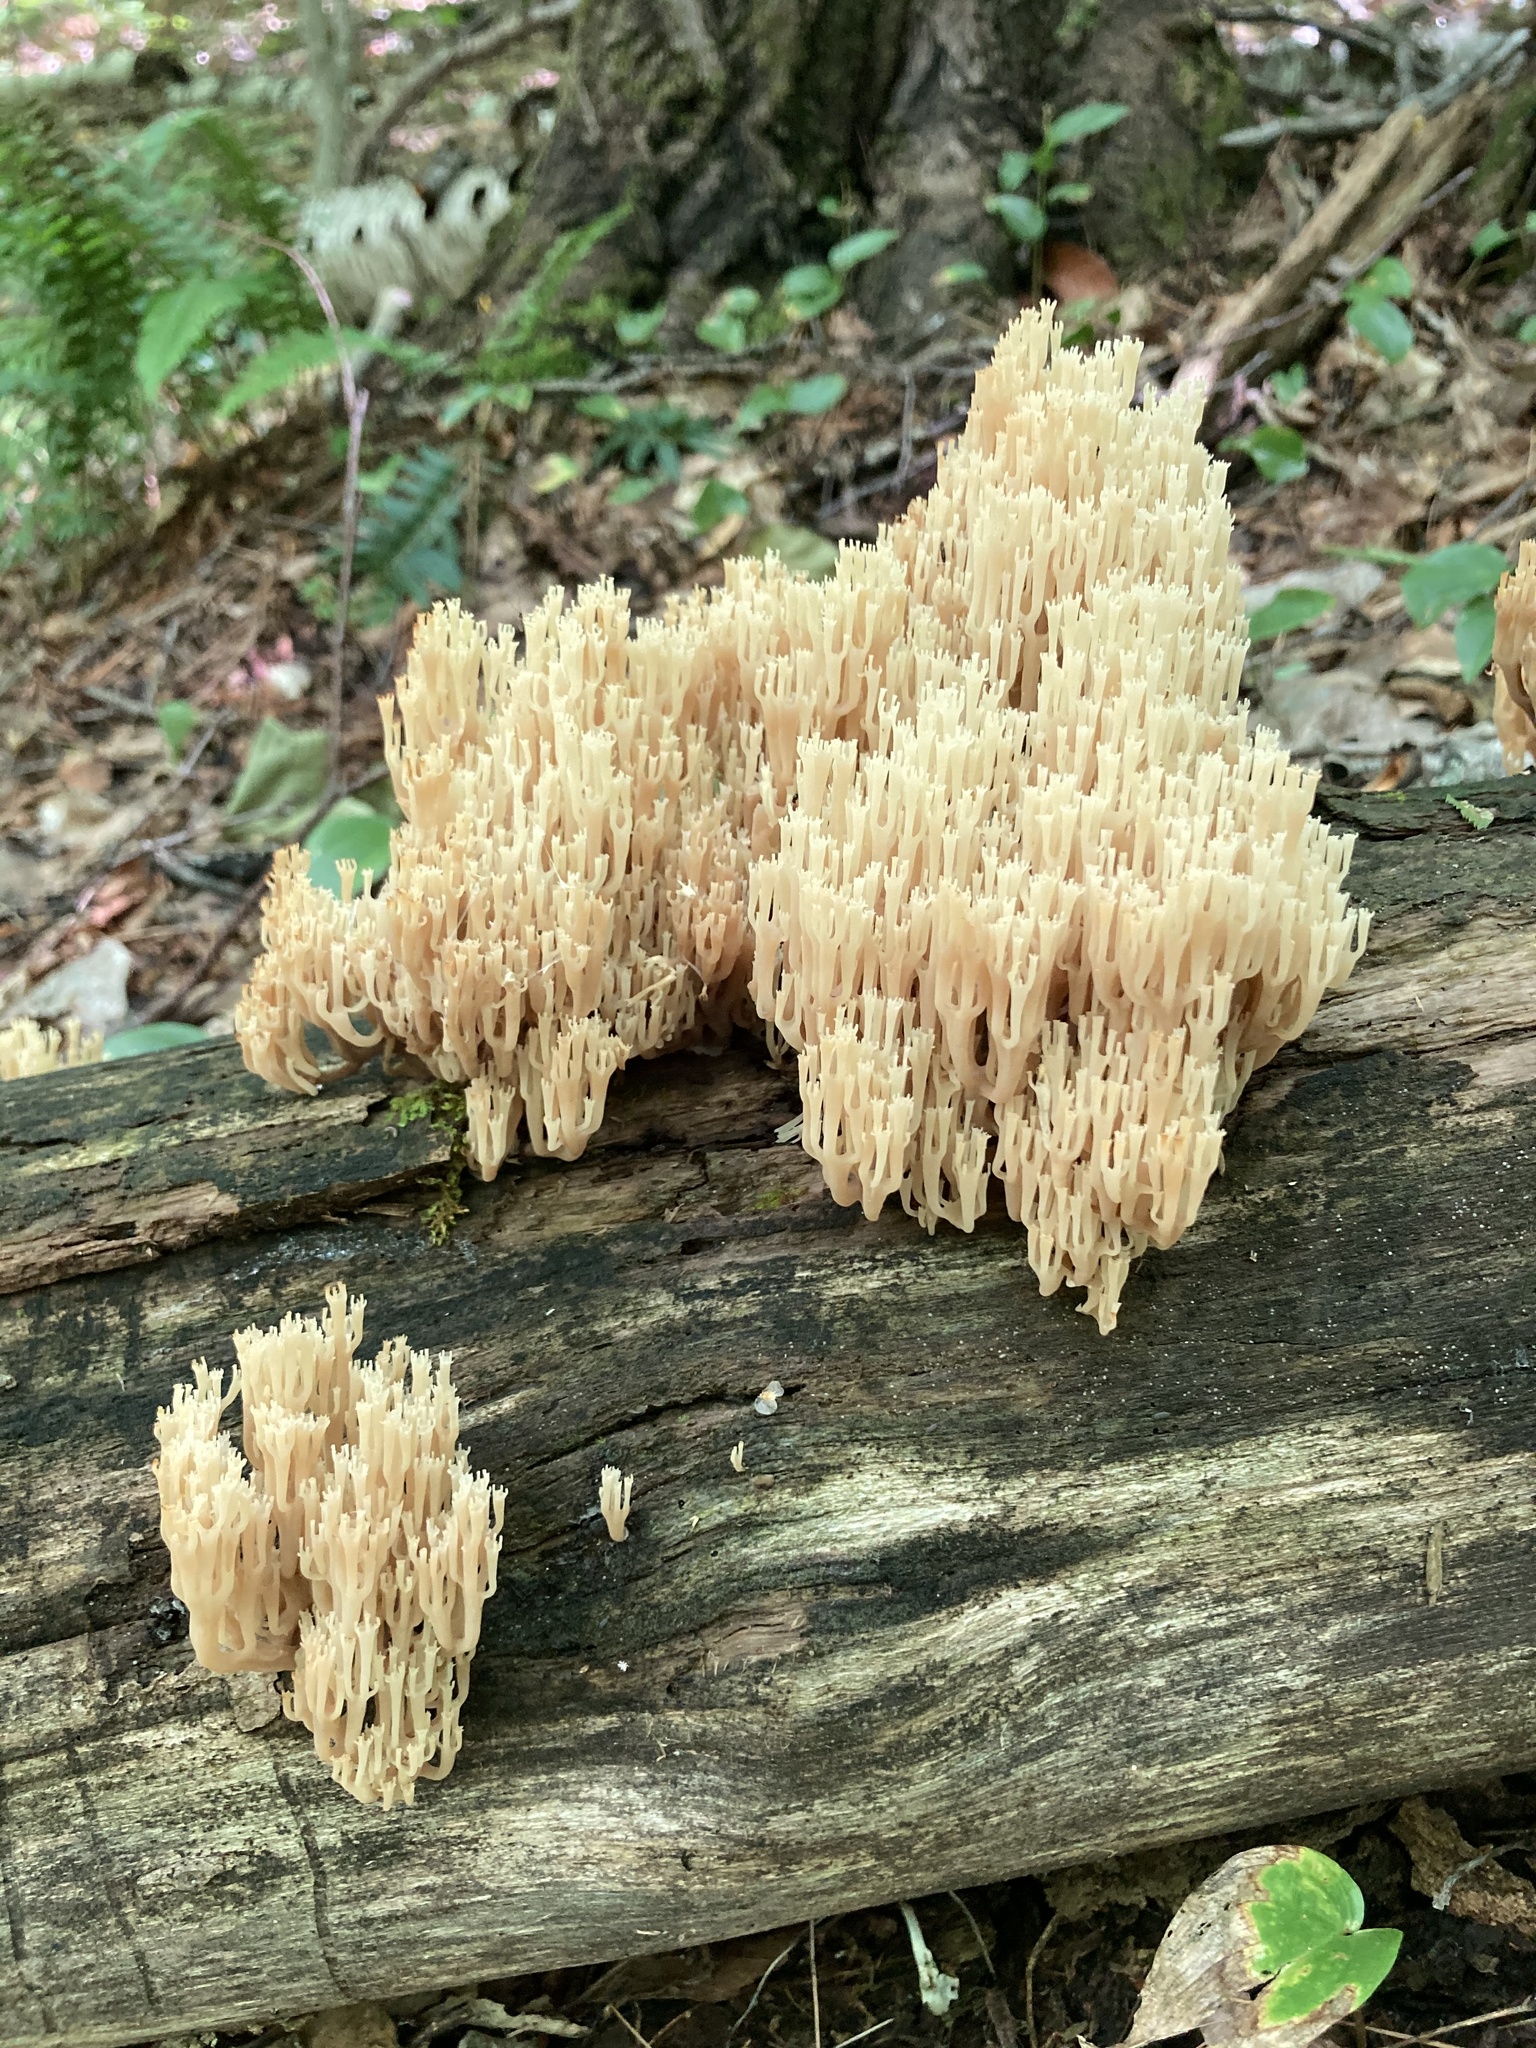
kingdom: Fungi
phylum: Basidiomycota
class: Agaricomycetes
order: Russulales
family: Auriscalpiaceae
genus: Artomyces
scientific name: Artomyces pyxidatus
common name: Crown-tipped coral fungus
